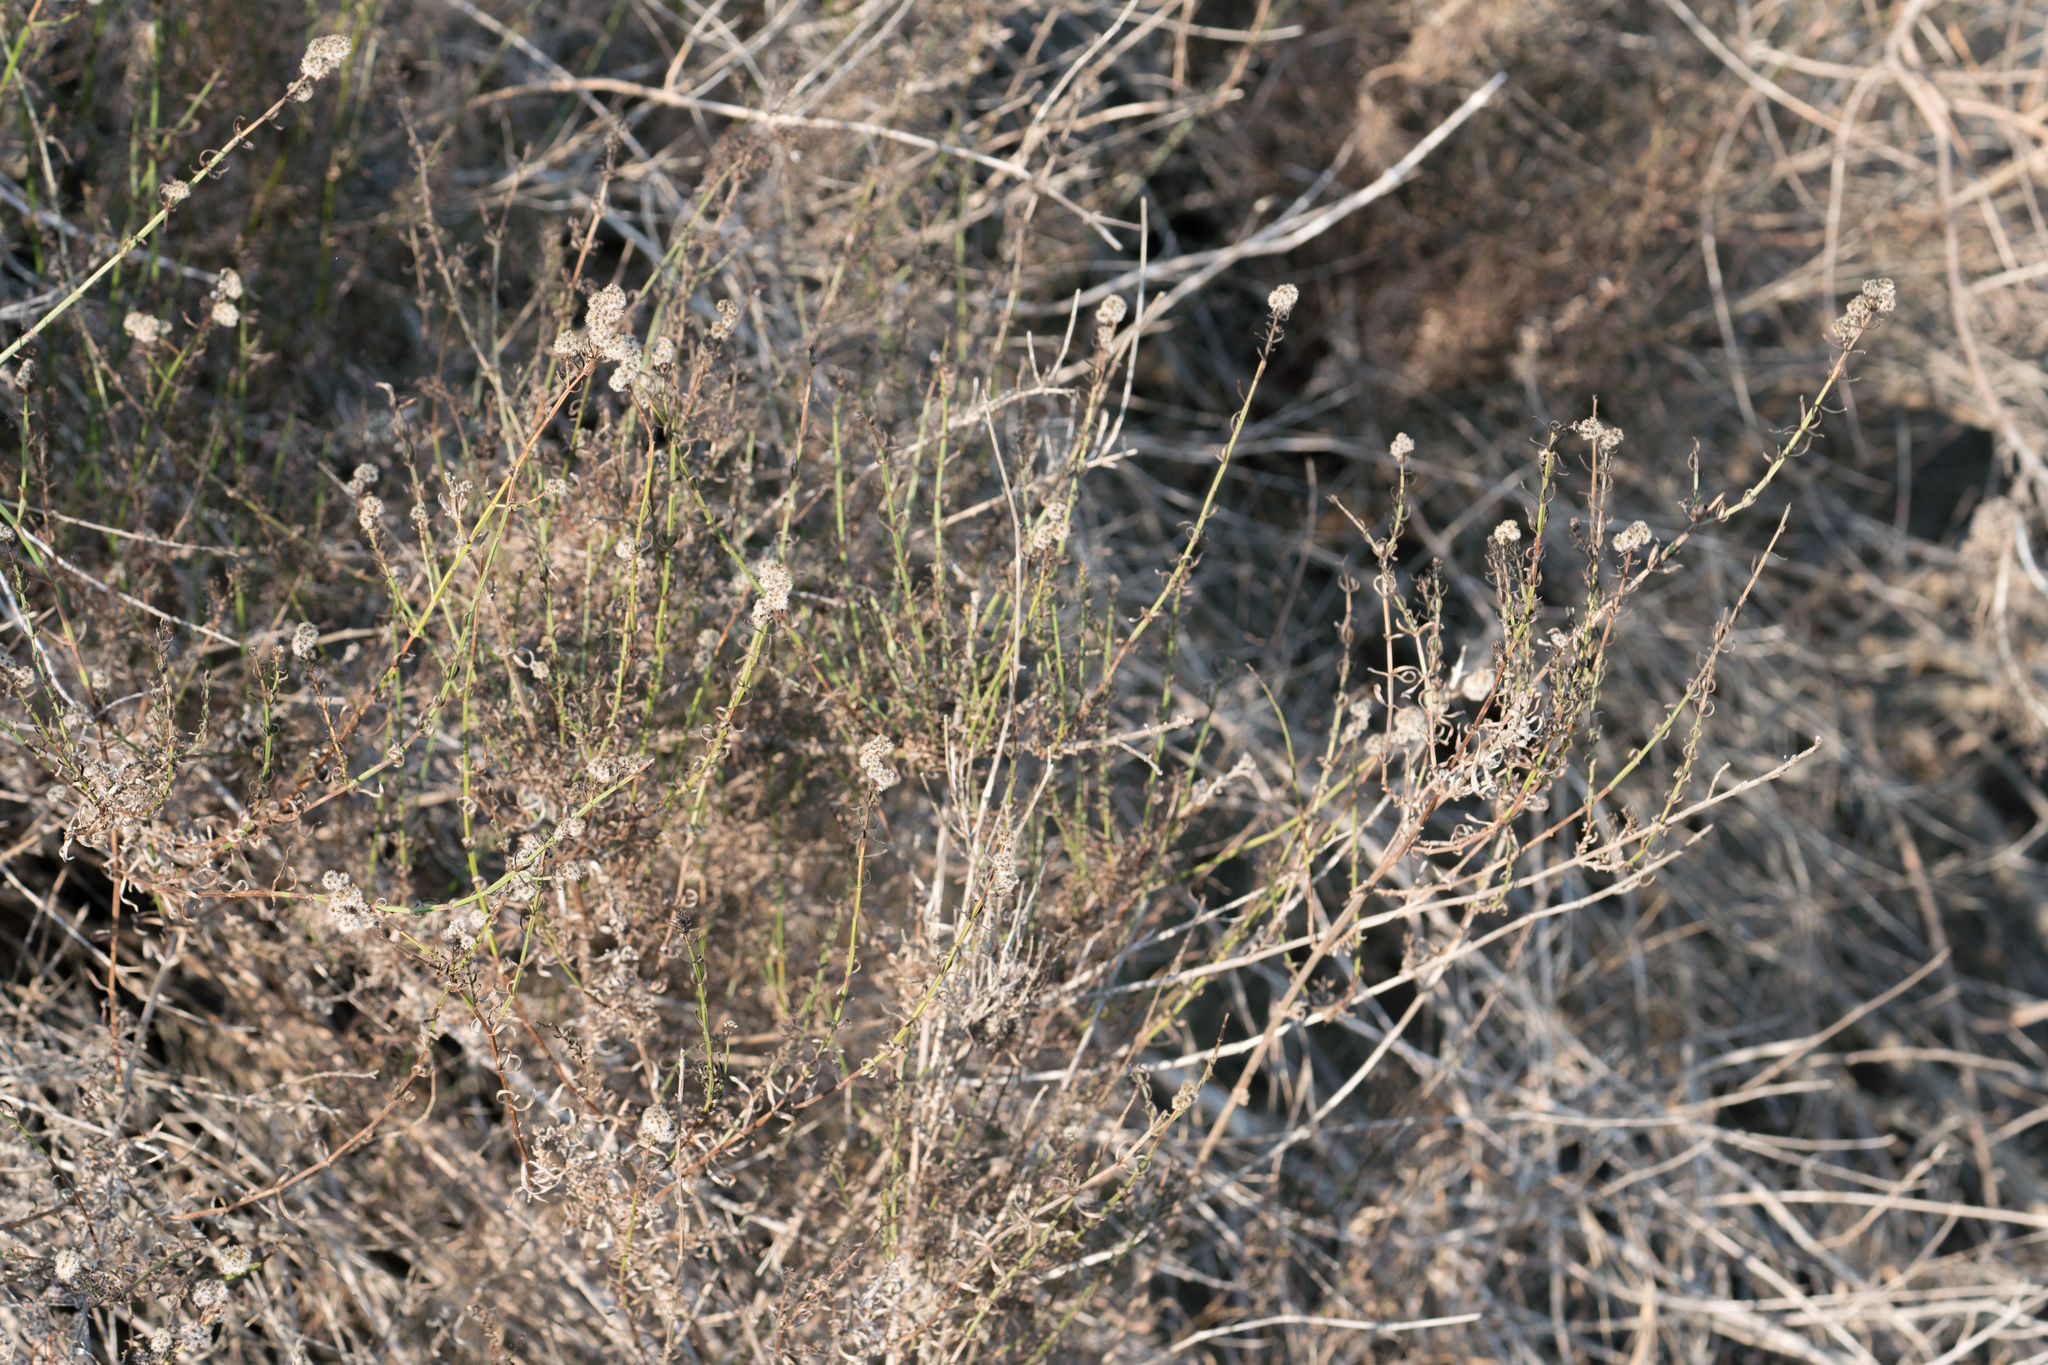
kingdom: Plantae
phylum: Tracheophyta
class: Magnoliopsida
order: Gentianales
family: Rubiaceae
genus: Galium
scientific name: Galium angustifolium
